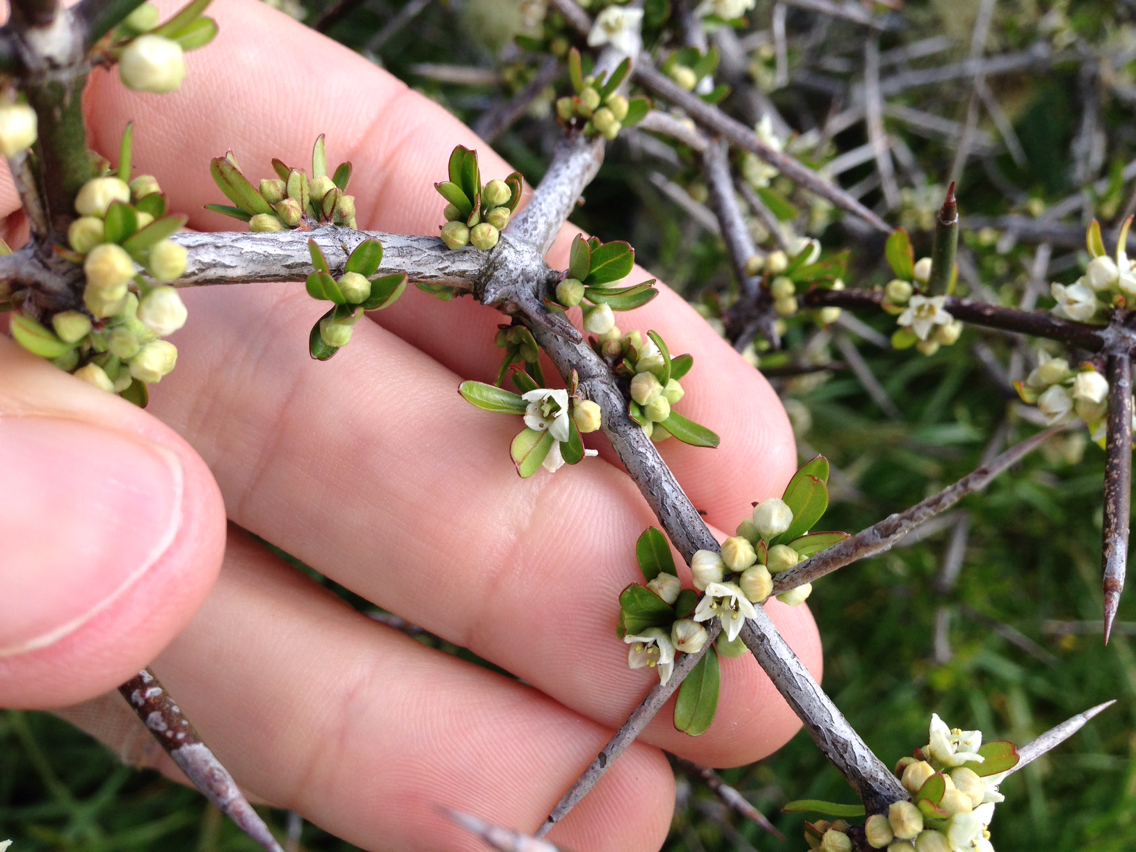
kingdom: Plantae
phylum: Tracheophyta
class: Magnoliopsida
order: Rosales
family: Rhamnaceae
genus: Discaria
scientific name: Discaria toumatou
